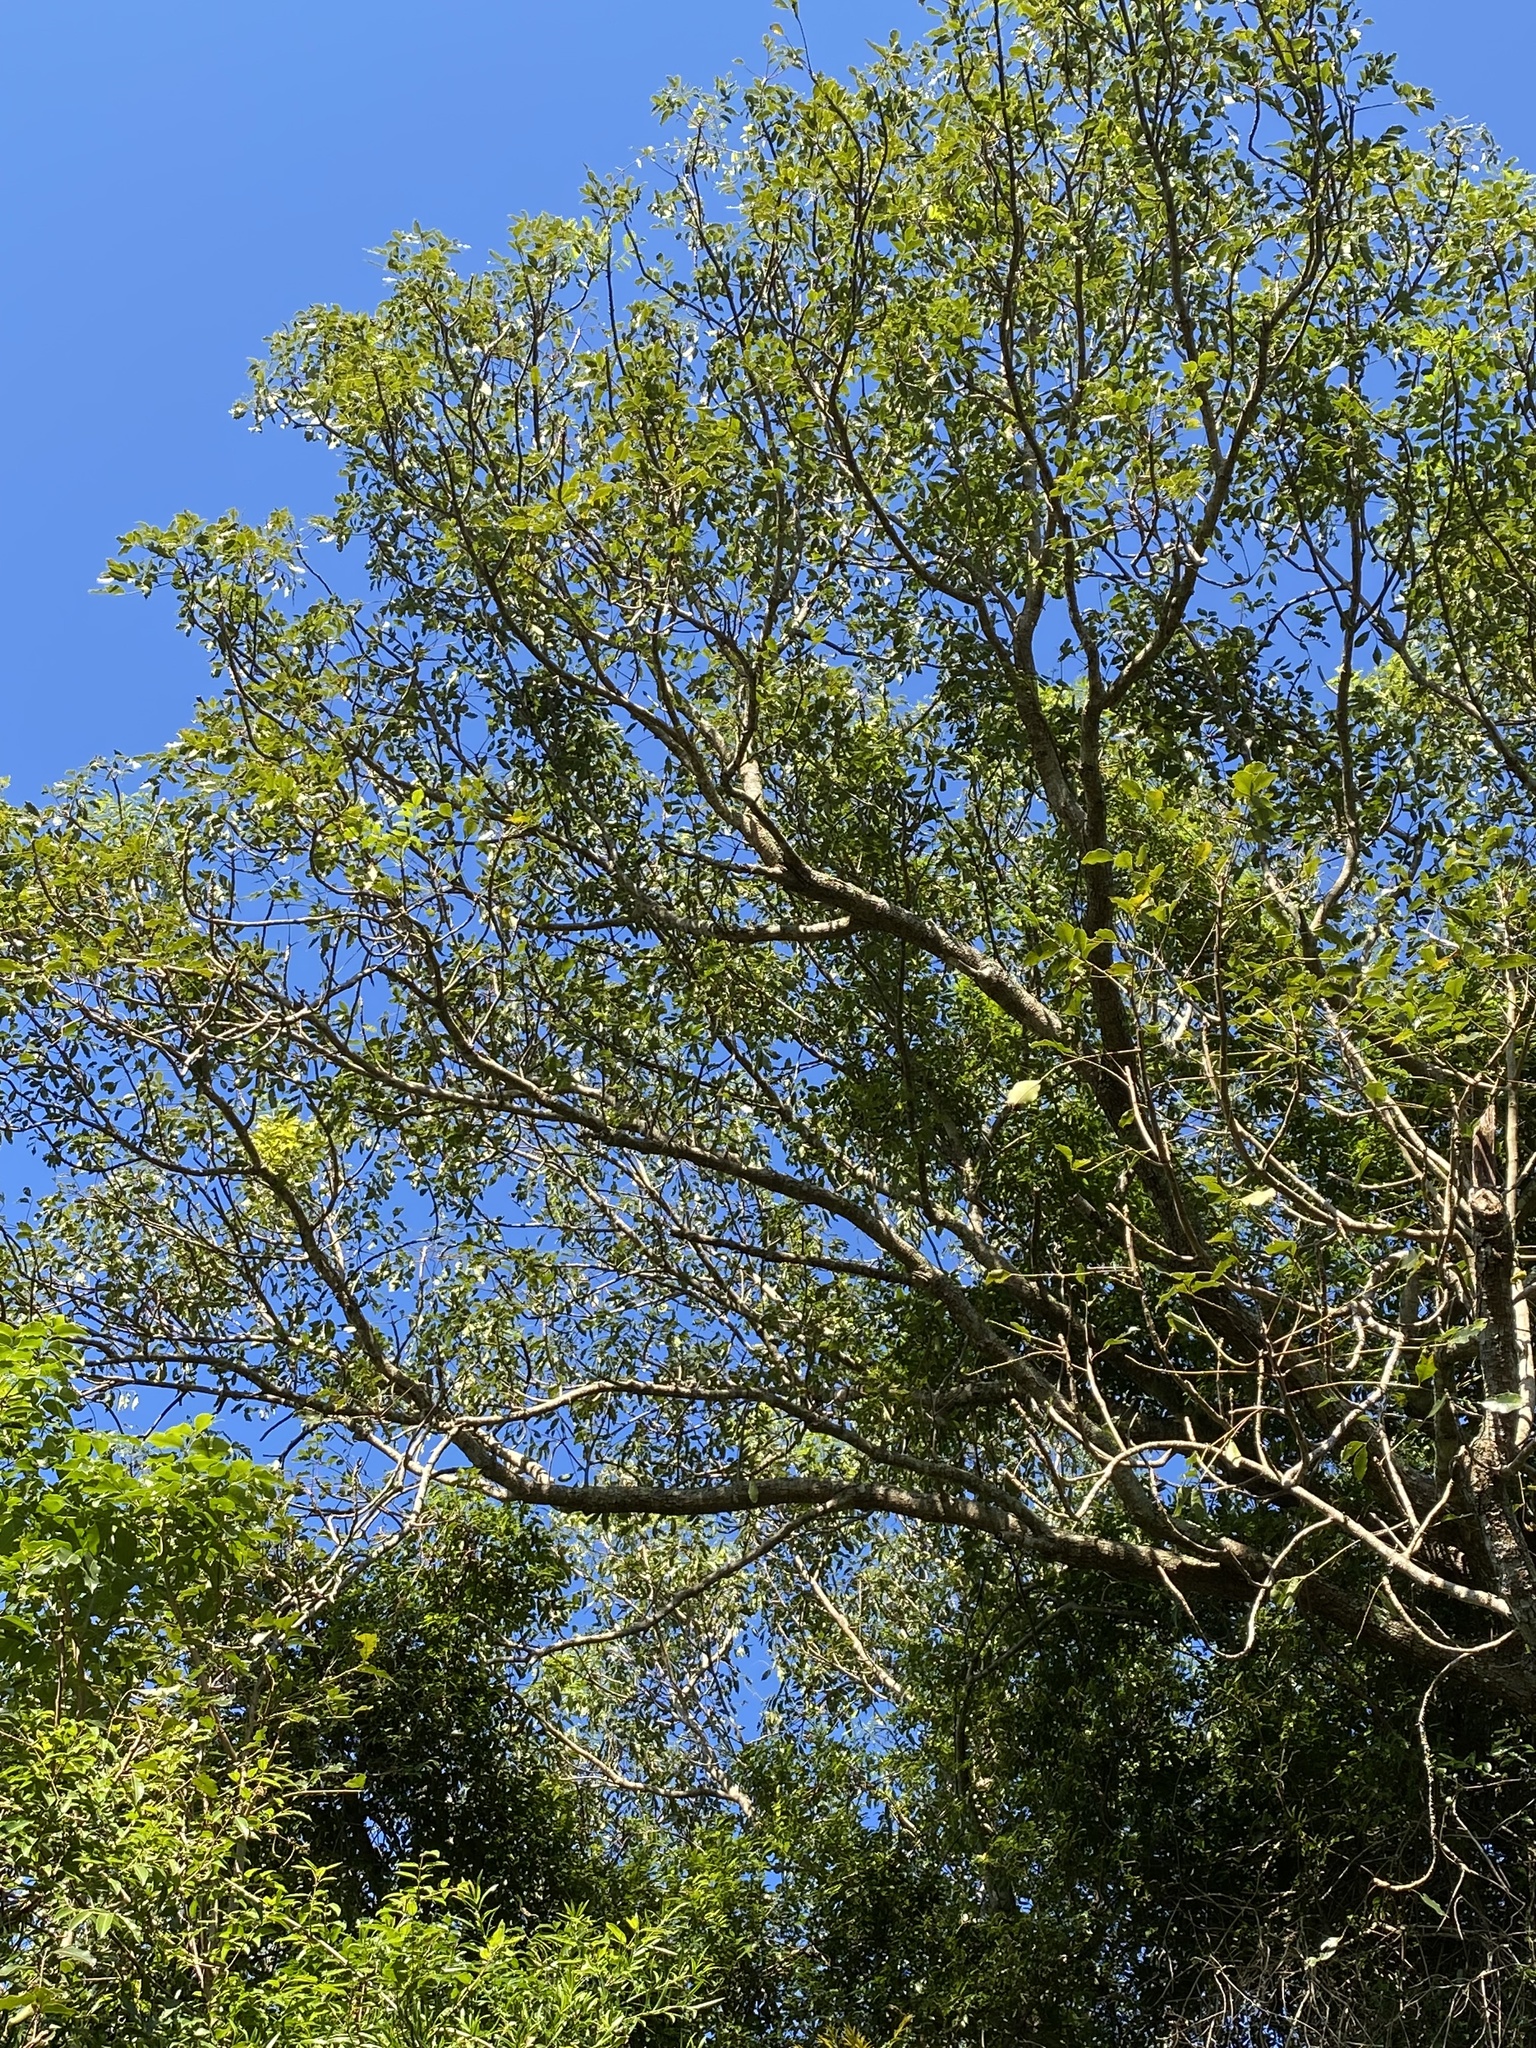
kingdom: Plantae
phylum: Tracheophyta
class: Magnoliopsida
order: Sapindales
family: Anacardiaceae
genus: Sclerocarya
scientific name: Sclerocarya birrea
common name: Marula
